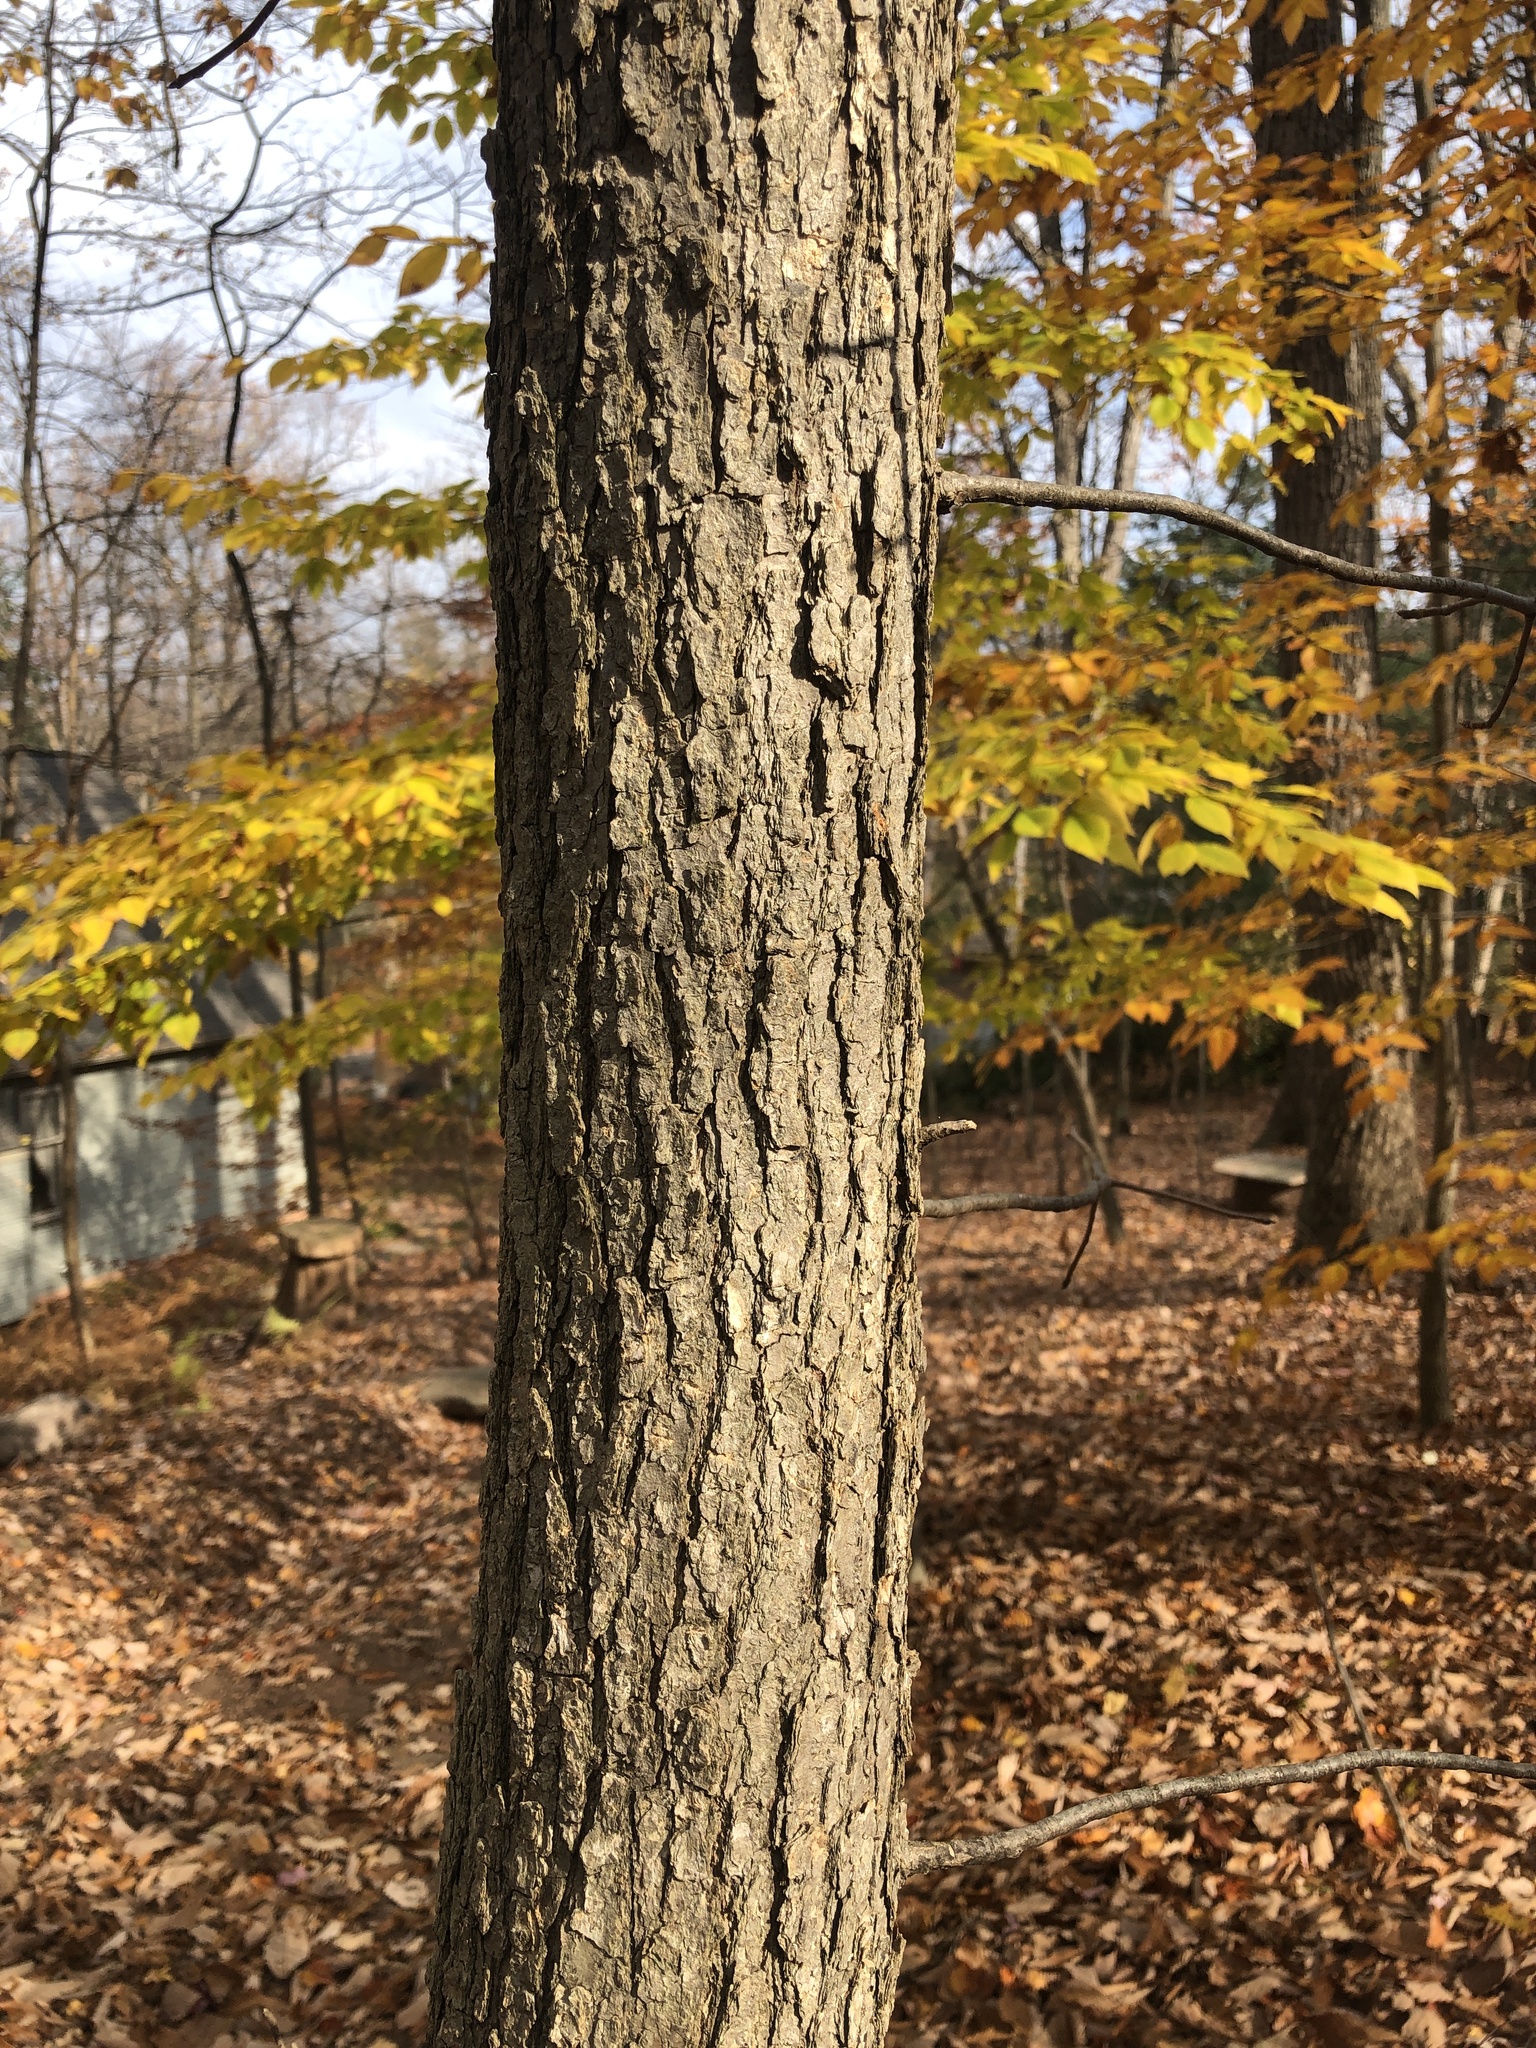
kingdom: Plantae
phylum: Tracheophyta
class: Magnoliopsida
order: Cornales
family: Nyssaceae
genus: Nyssa
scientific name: Nyssa sylvatica
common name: Black tupelo
